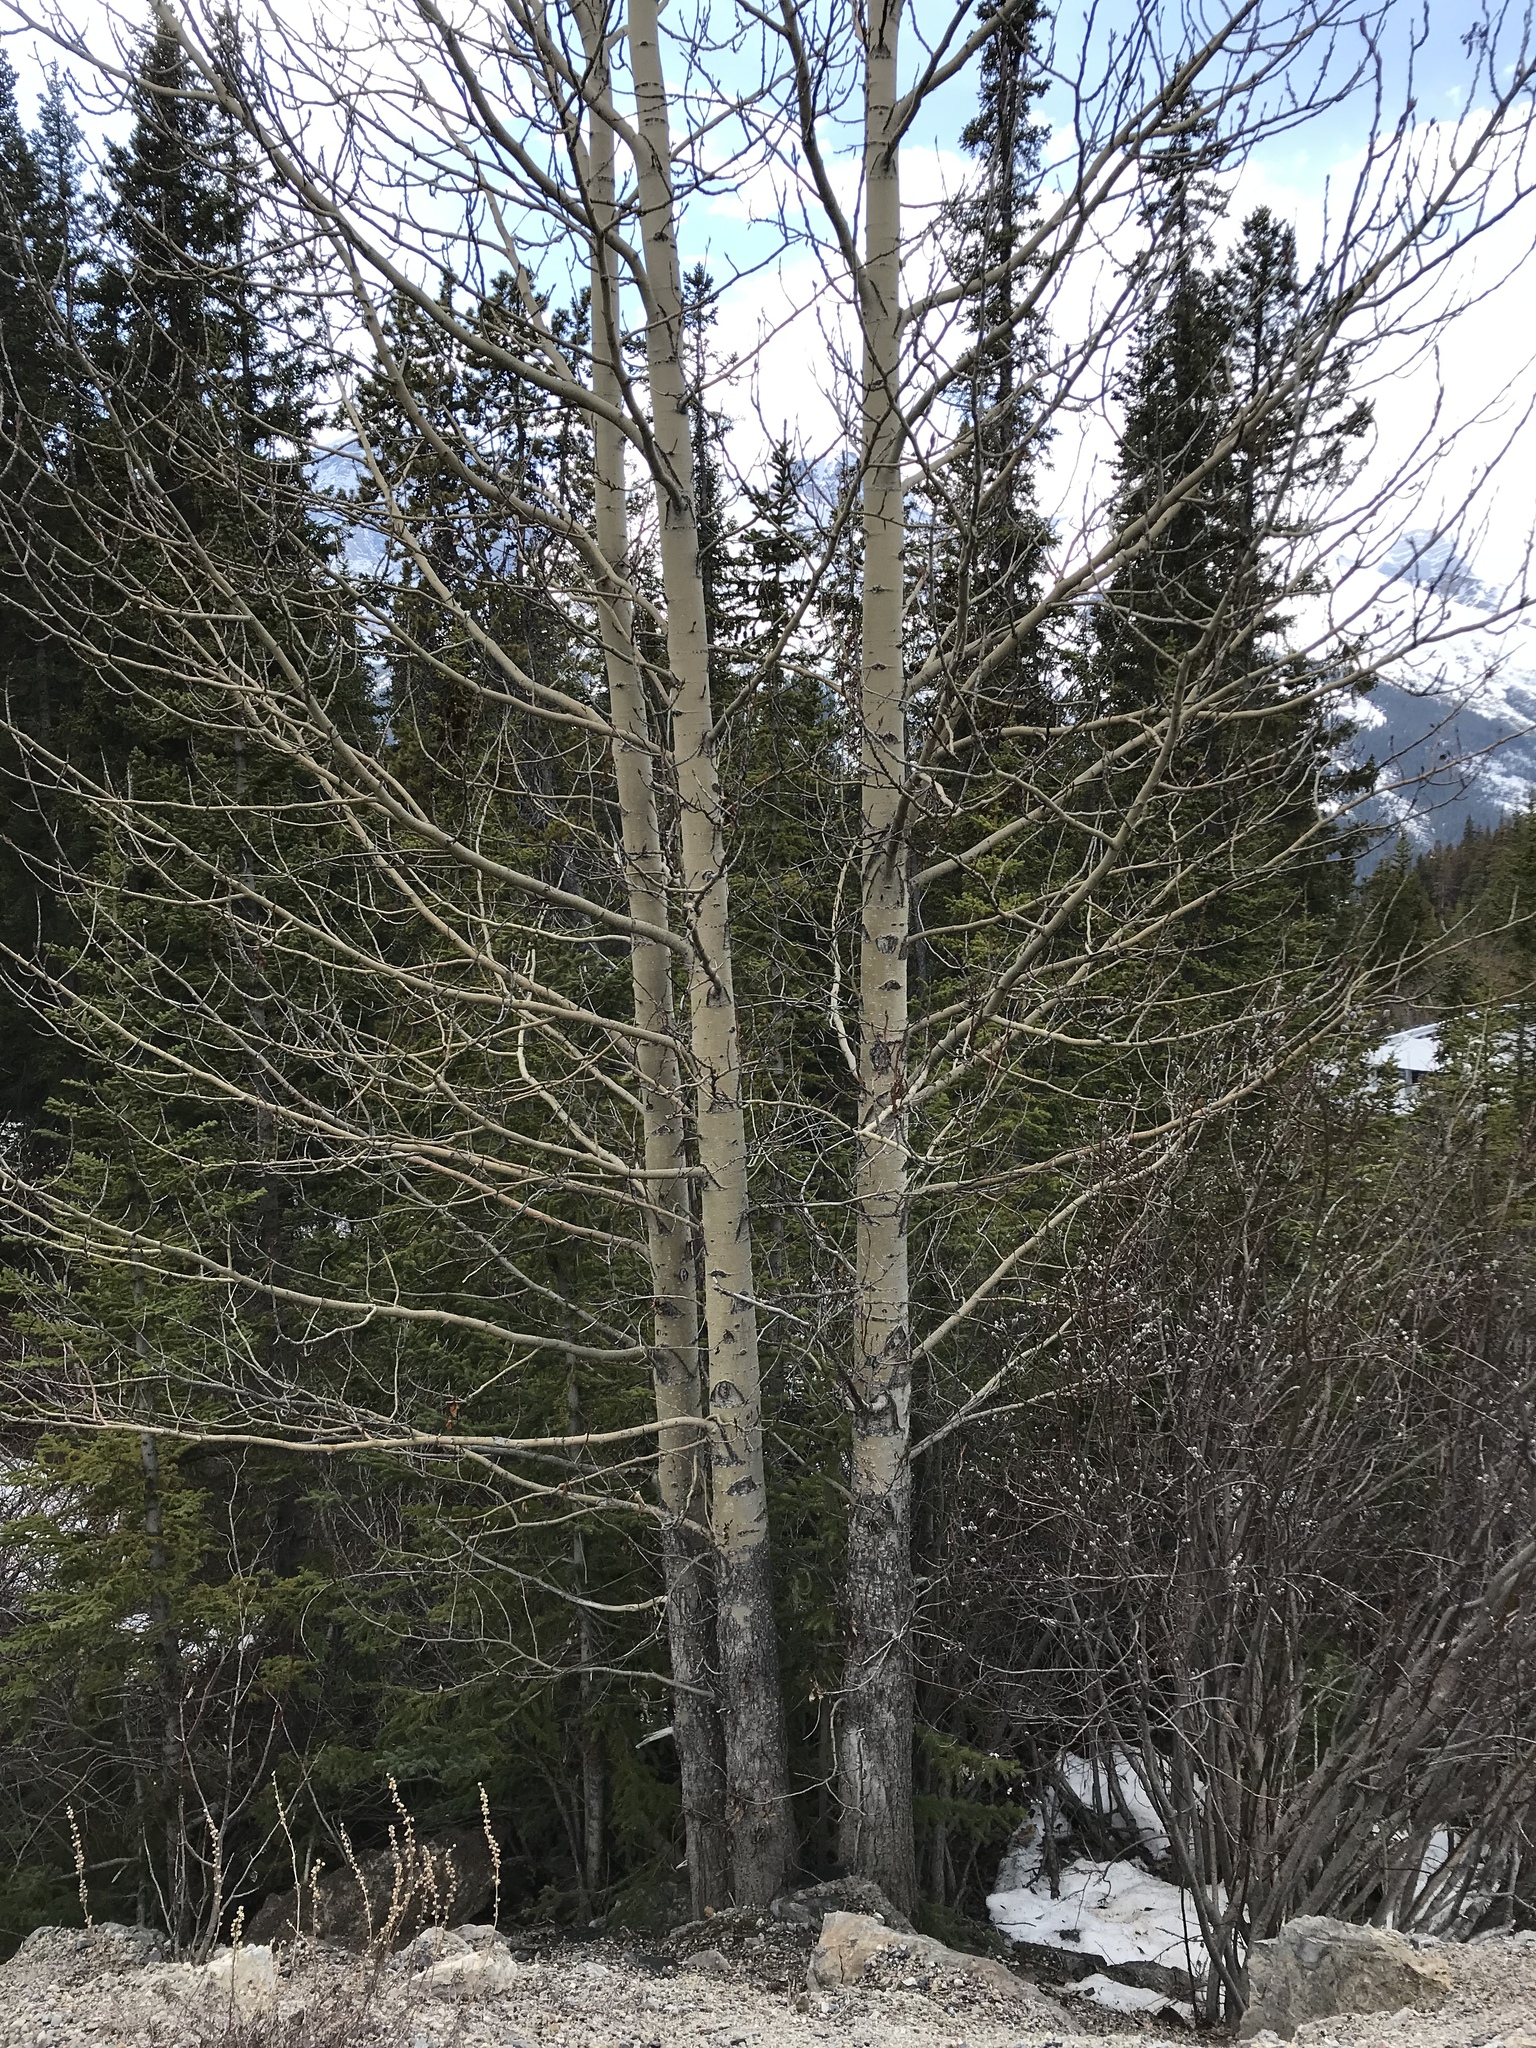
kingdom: Plantae
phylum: Tracheophyta
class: Magnoliopsida
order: Malpighiales
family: Salicaceae
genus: Populus
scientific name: Populus tremuloides
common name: Quaking aspen
